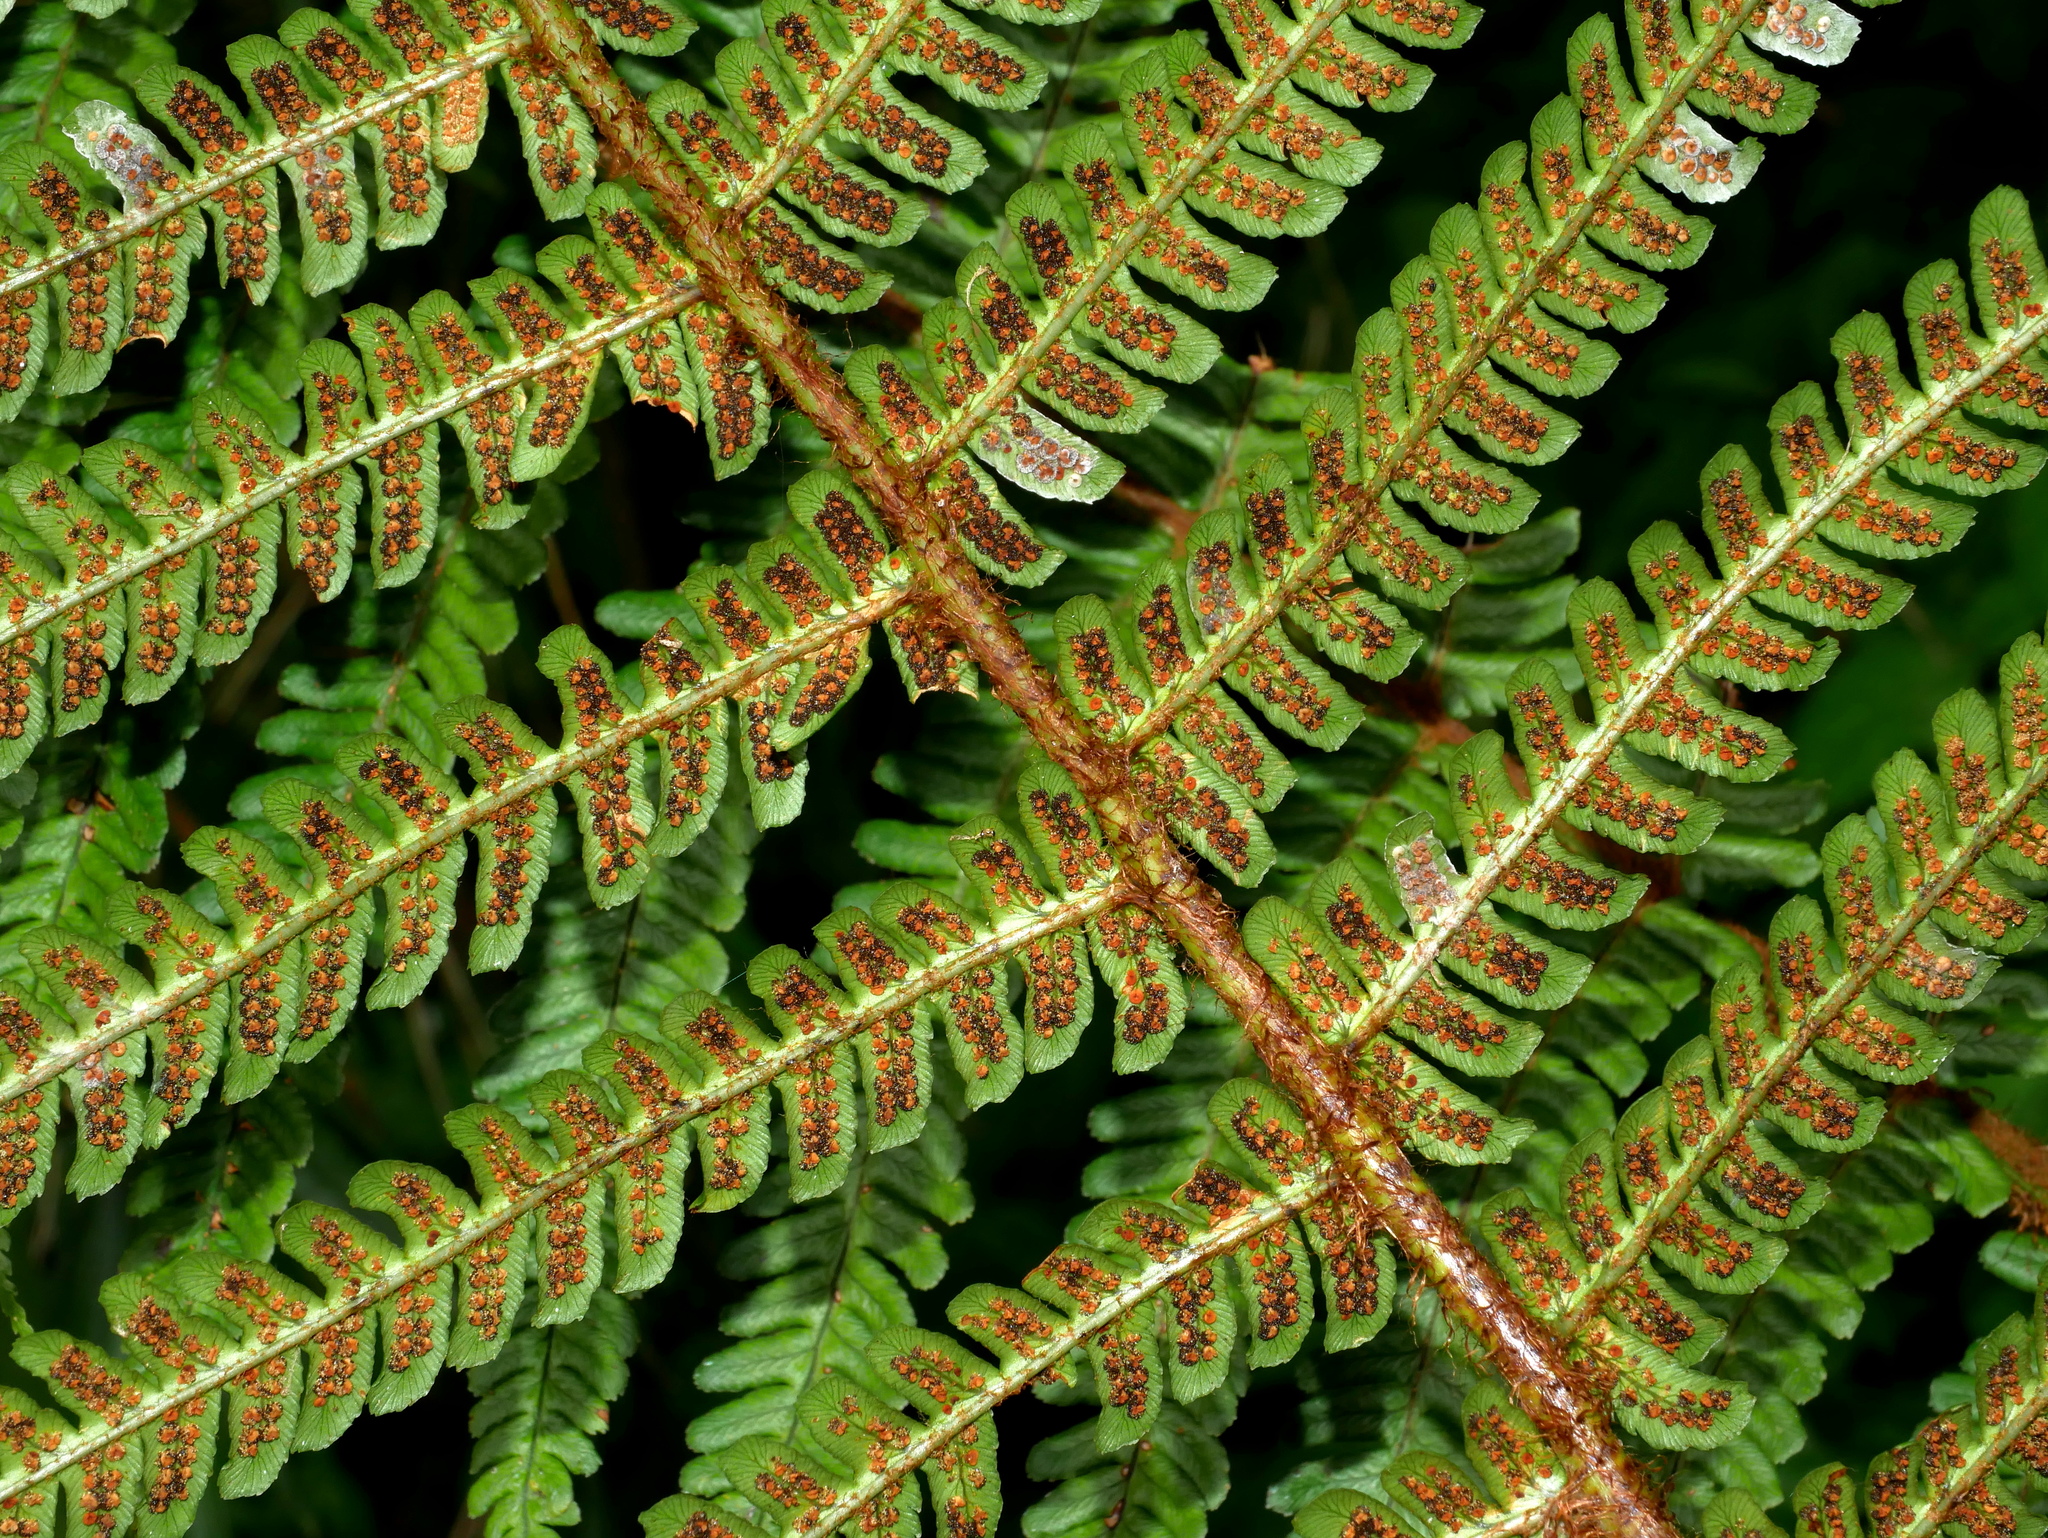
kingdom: Plantae
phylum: Tracheophyta
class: Polypodiopsida
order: Polypodiales
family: Dryopteridaceae
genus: Dryopteris
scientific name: Dryopteris wallichiana
